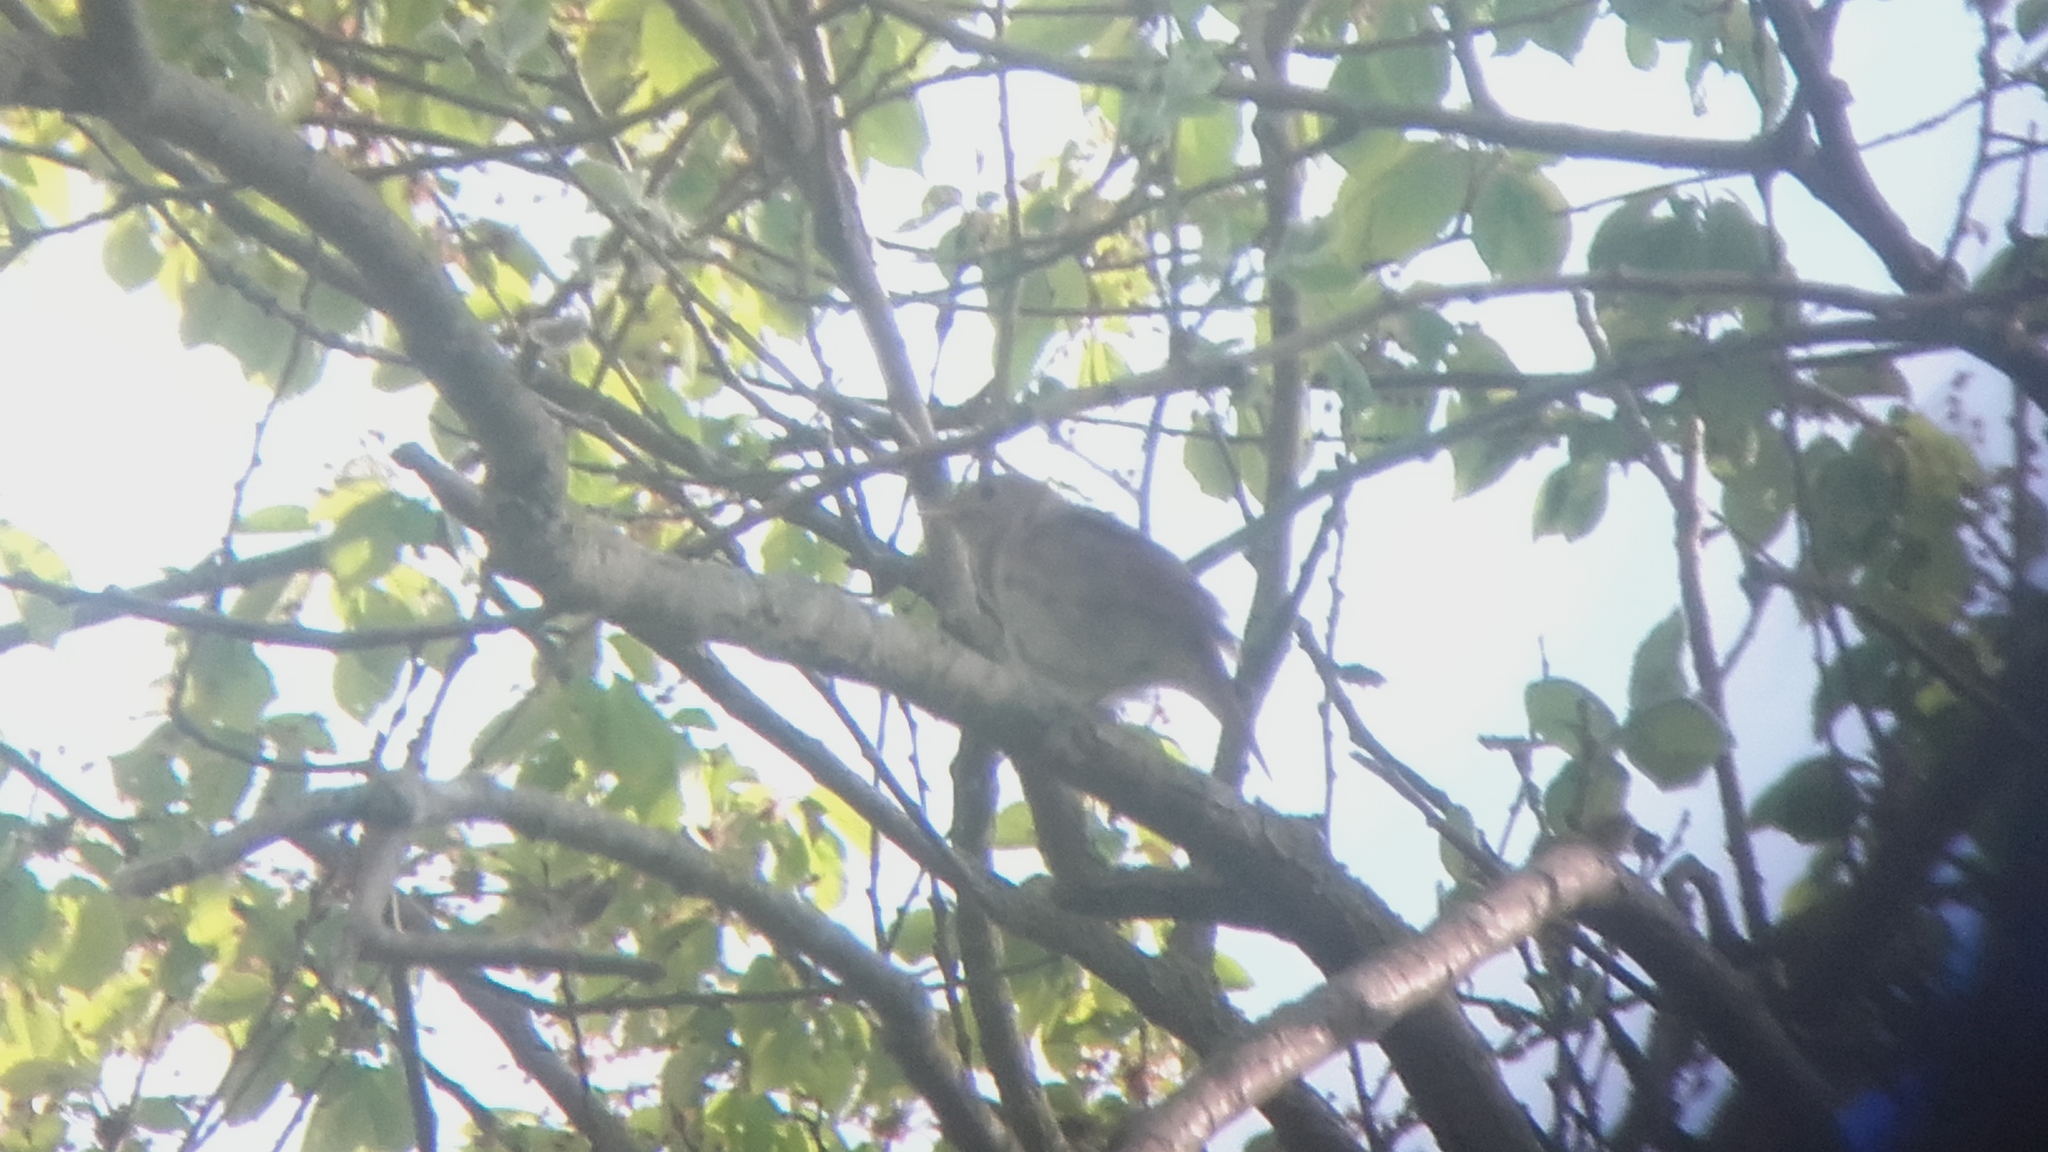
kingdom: Animalia
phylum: Chordata
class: Aves
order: Passeriformes
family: Muscicapidae
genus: Luscinia
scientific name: Luscinia megarhynchos
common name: Common nightingale
